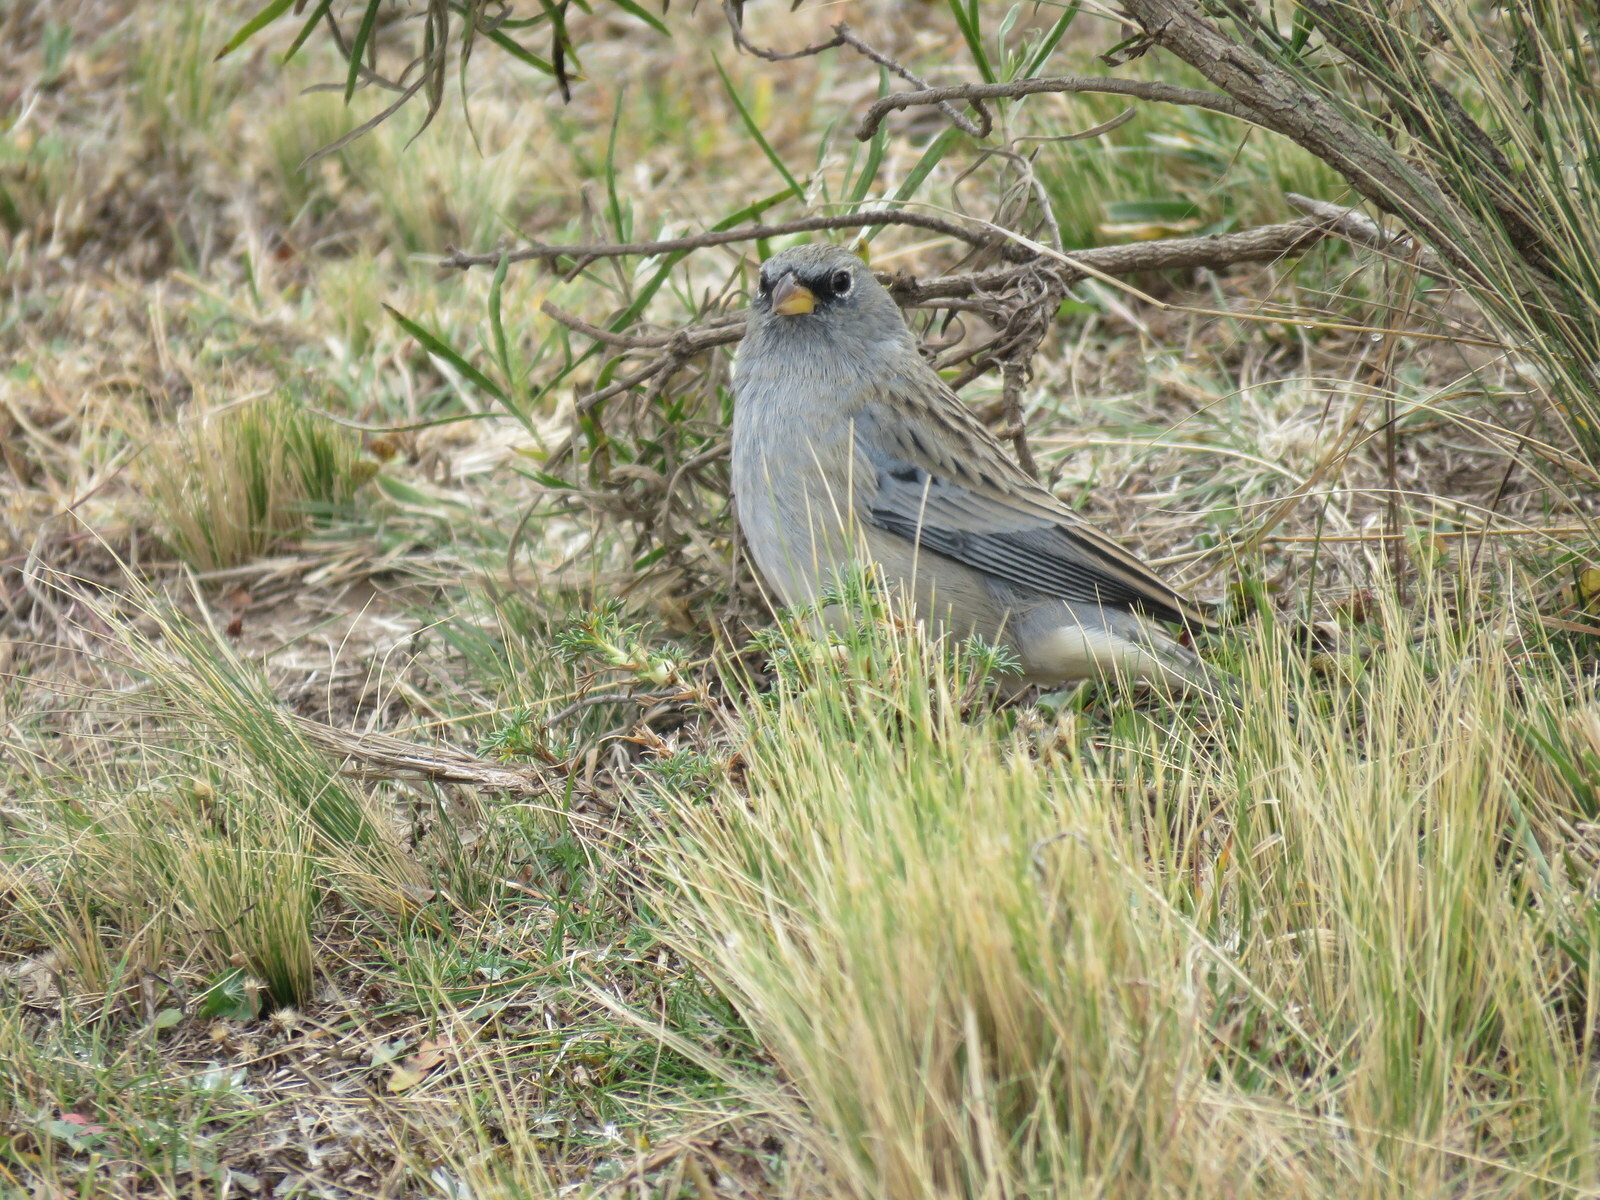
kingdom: Animalia
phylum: Chordata
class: Aves
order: Passeriformes
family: Thraupidae
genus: Porphyrospiza
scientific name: Porphyrospiza alaudina
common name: Band-tailed sierra finch
